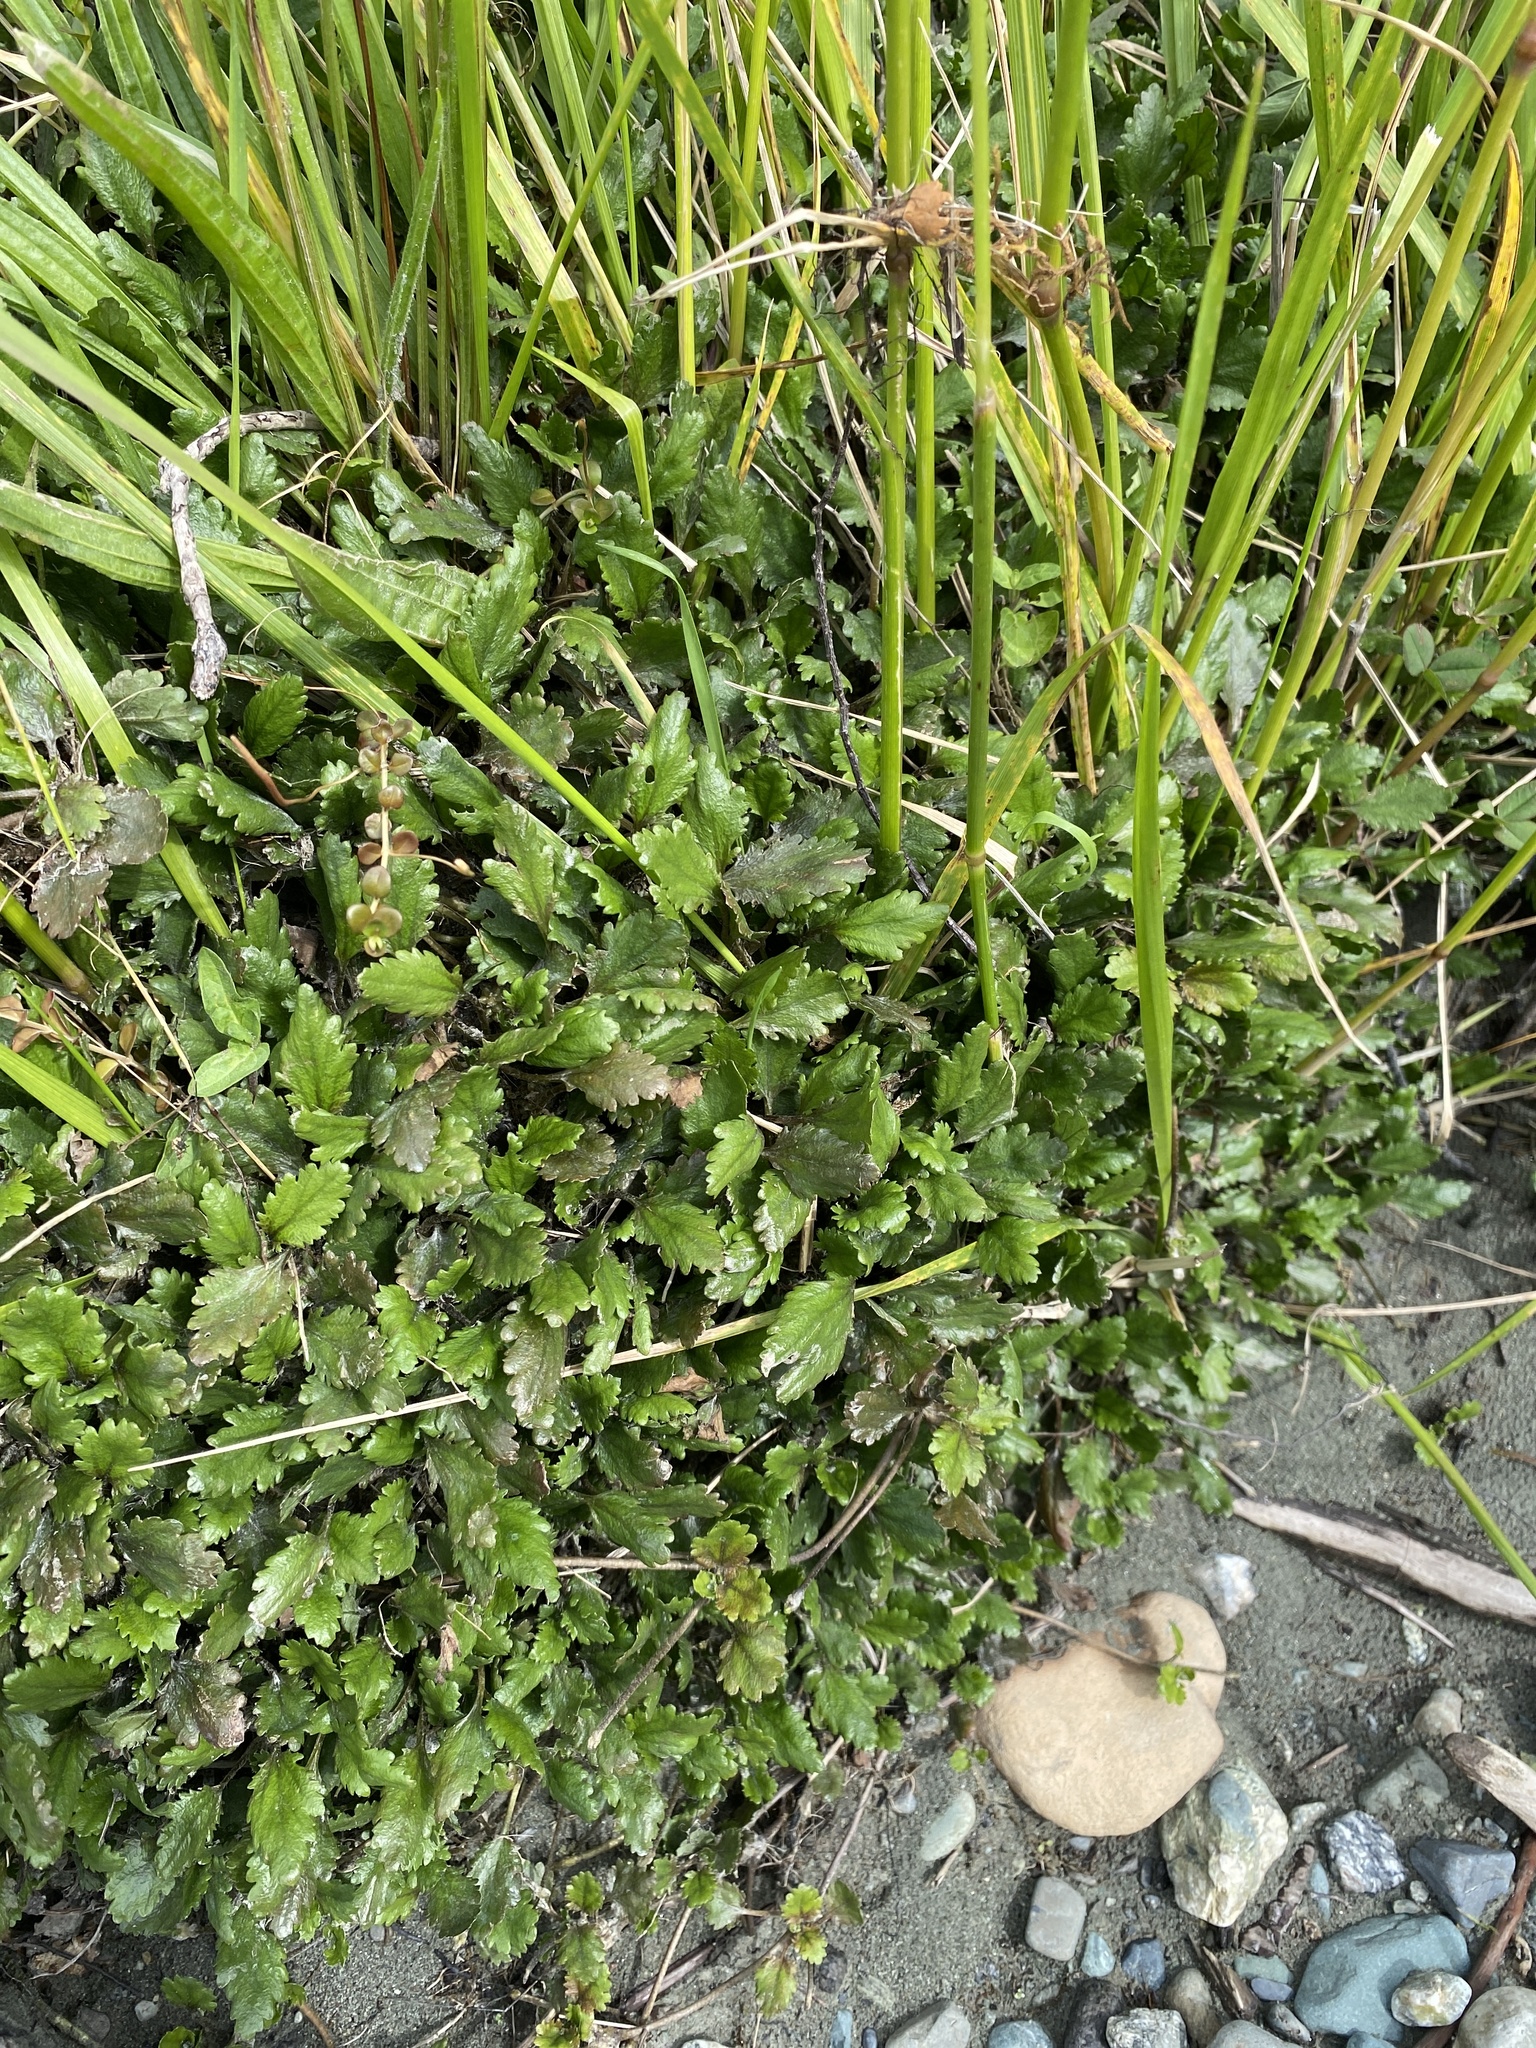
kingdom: Plantae
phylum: Tracheophyta
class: Magnoliopsida
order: Gunnerales
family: Gunneraceae
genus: Gunnera
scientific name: Gunnera dentata
